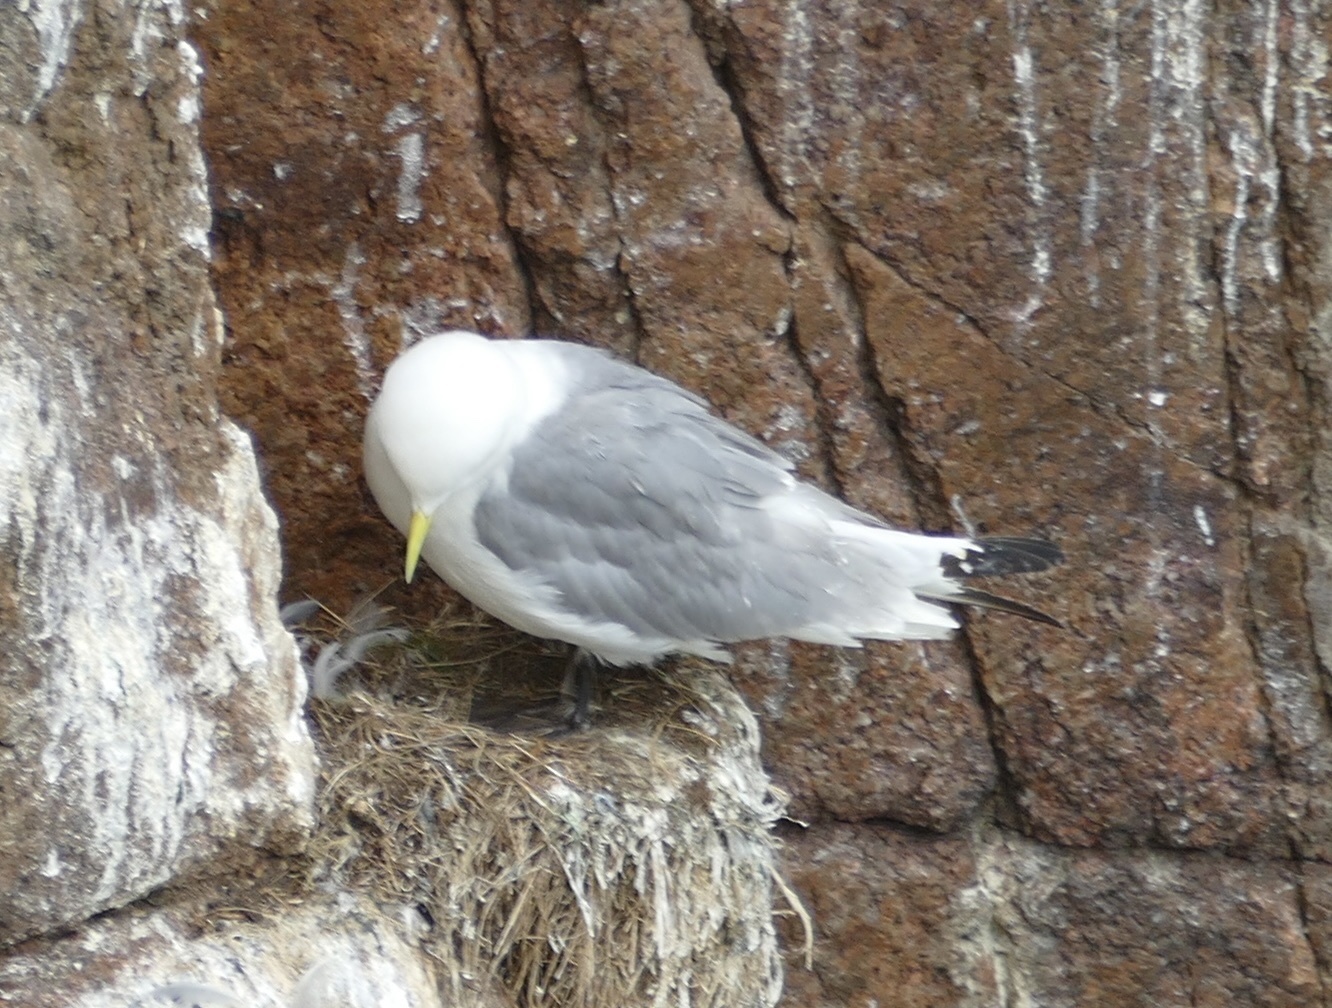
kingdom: Animalia
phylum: Chordata
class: Aves
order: Charadriiformes
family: Laridae
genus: Rissa
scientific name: Rissa tridactyla
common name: Black-legged kittiwake
